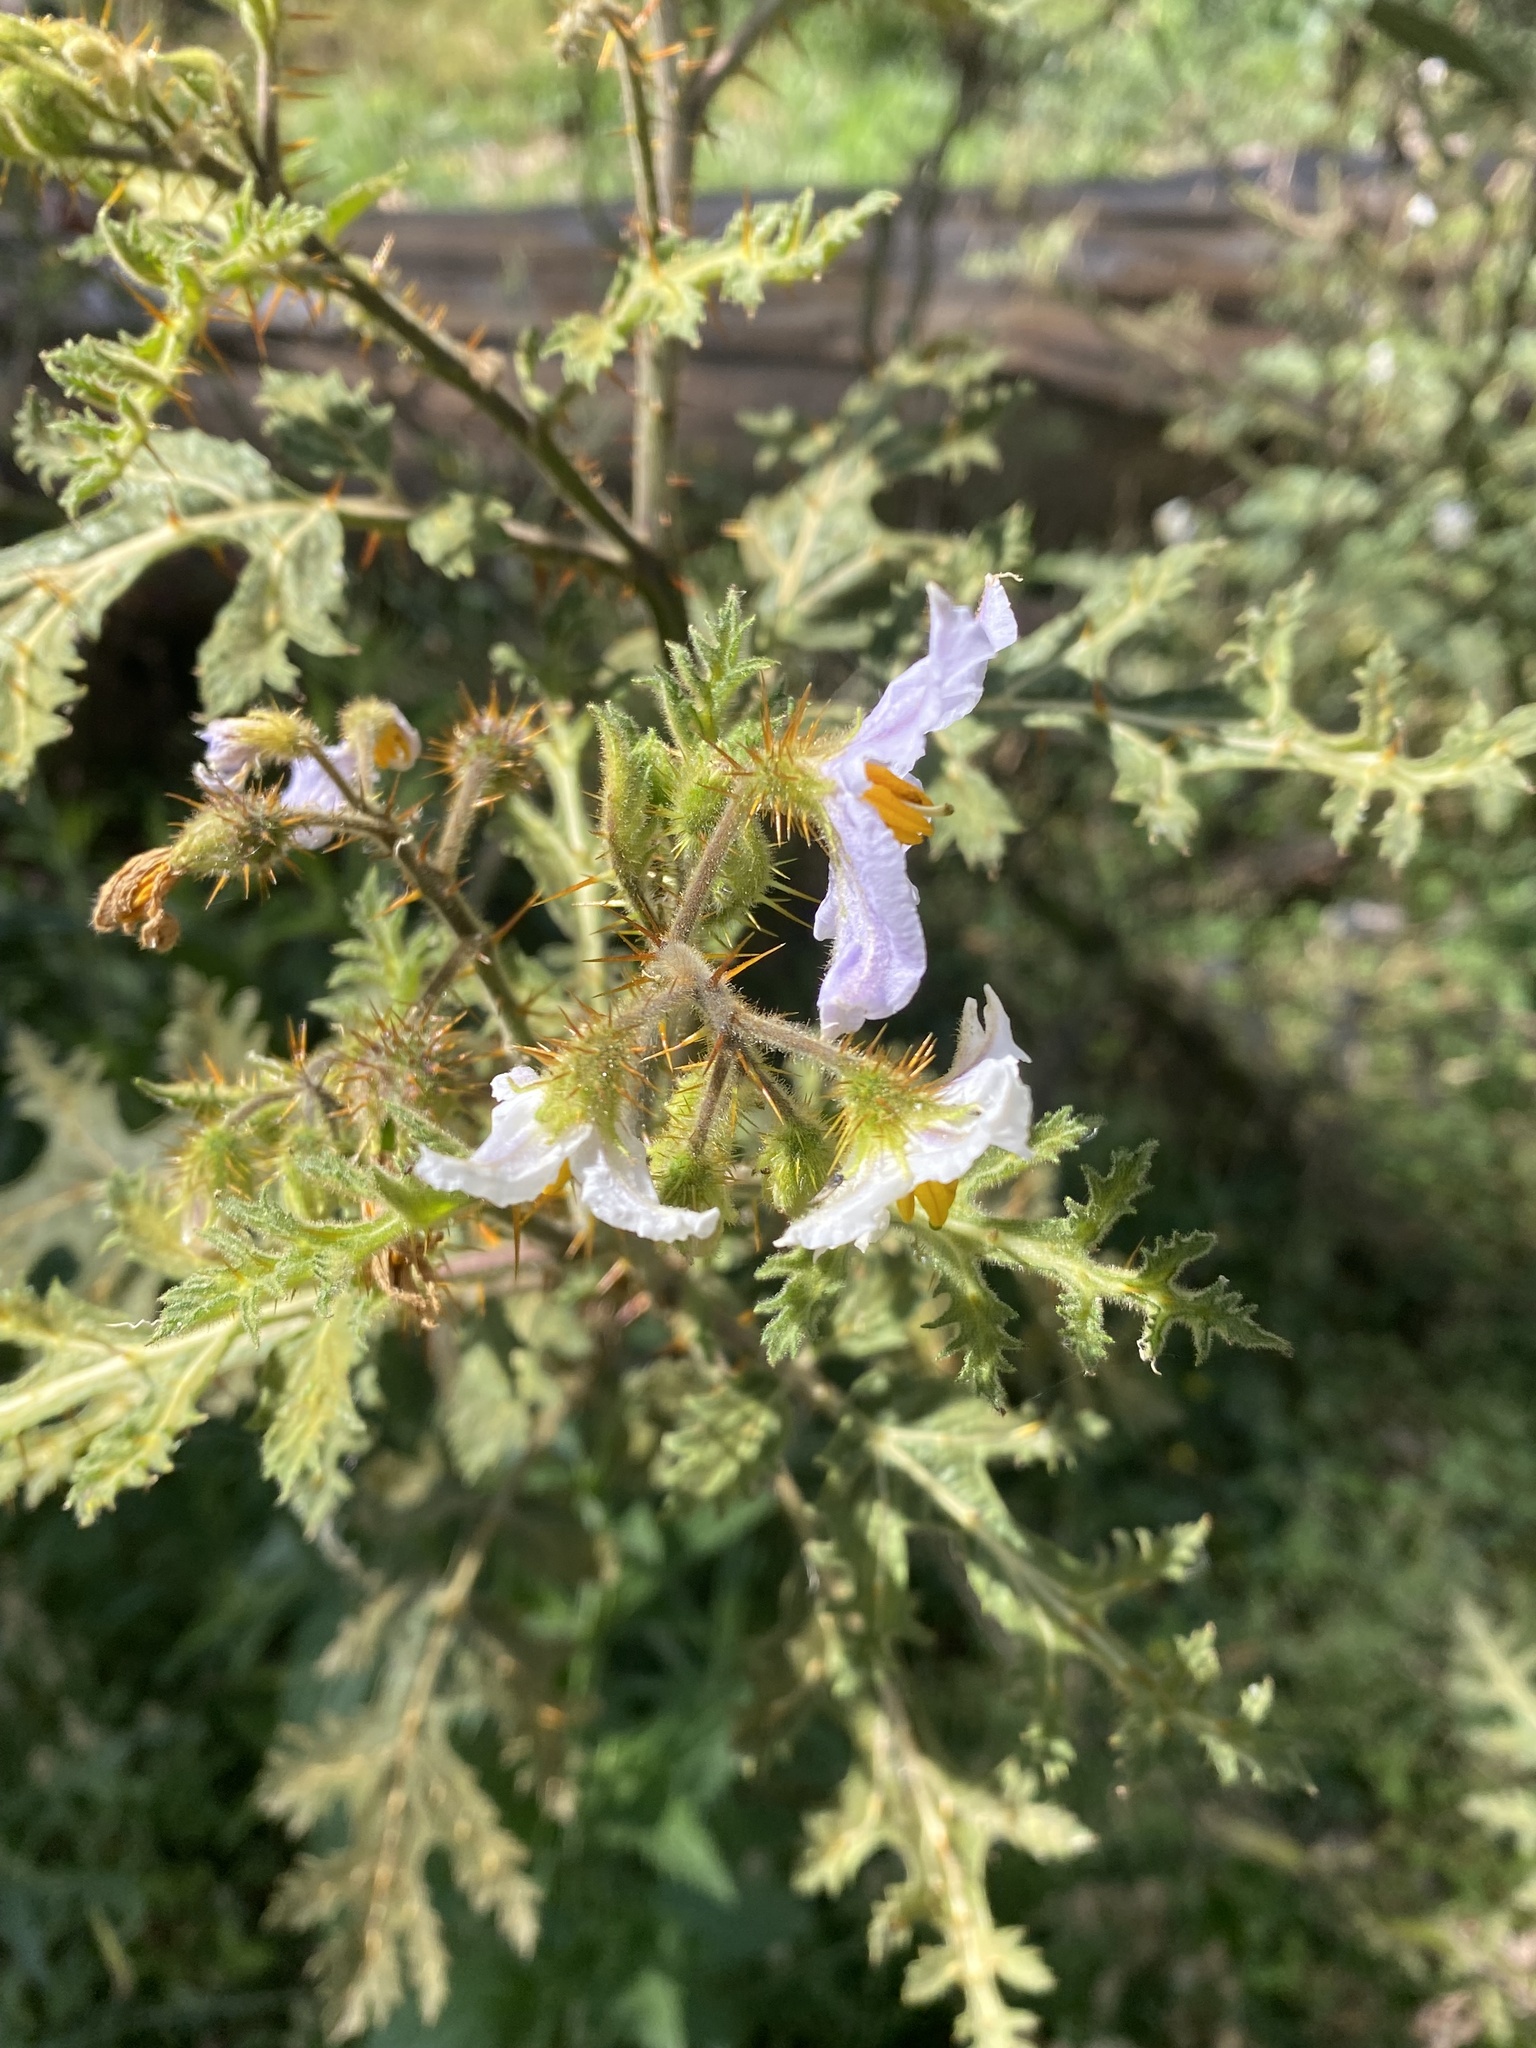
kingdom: Plantae
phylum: Tracheophyta
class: Magnoliopsida
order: Solanales
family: Solanaceae
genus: Solanum
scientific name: Solanum sisymbriifolium
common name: Red buffalo-bur
